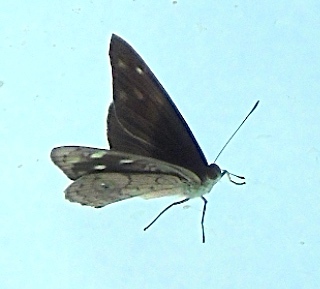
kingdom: Animalia
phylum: Arthropoda
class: Insecta
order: Lepidoptera
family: Nymphalidae
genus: Eunica
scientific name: Eunica monima
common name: Dingy purplewing
